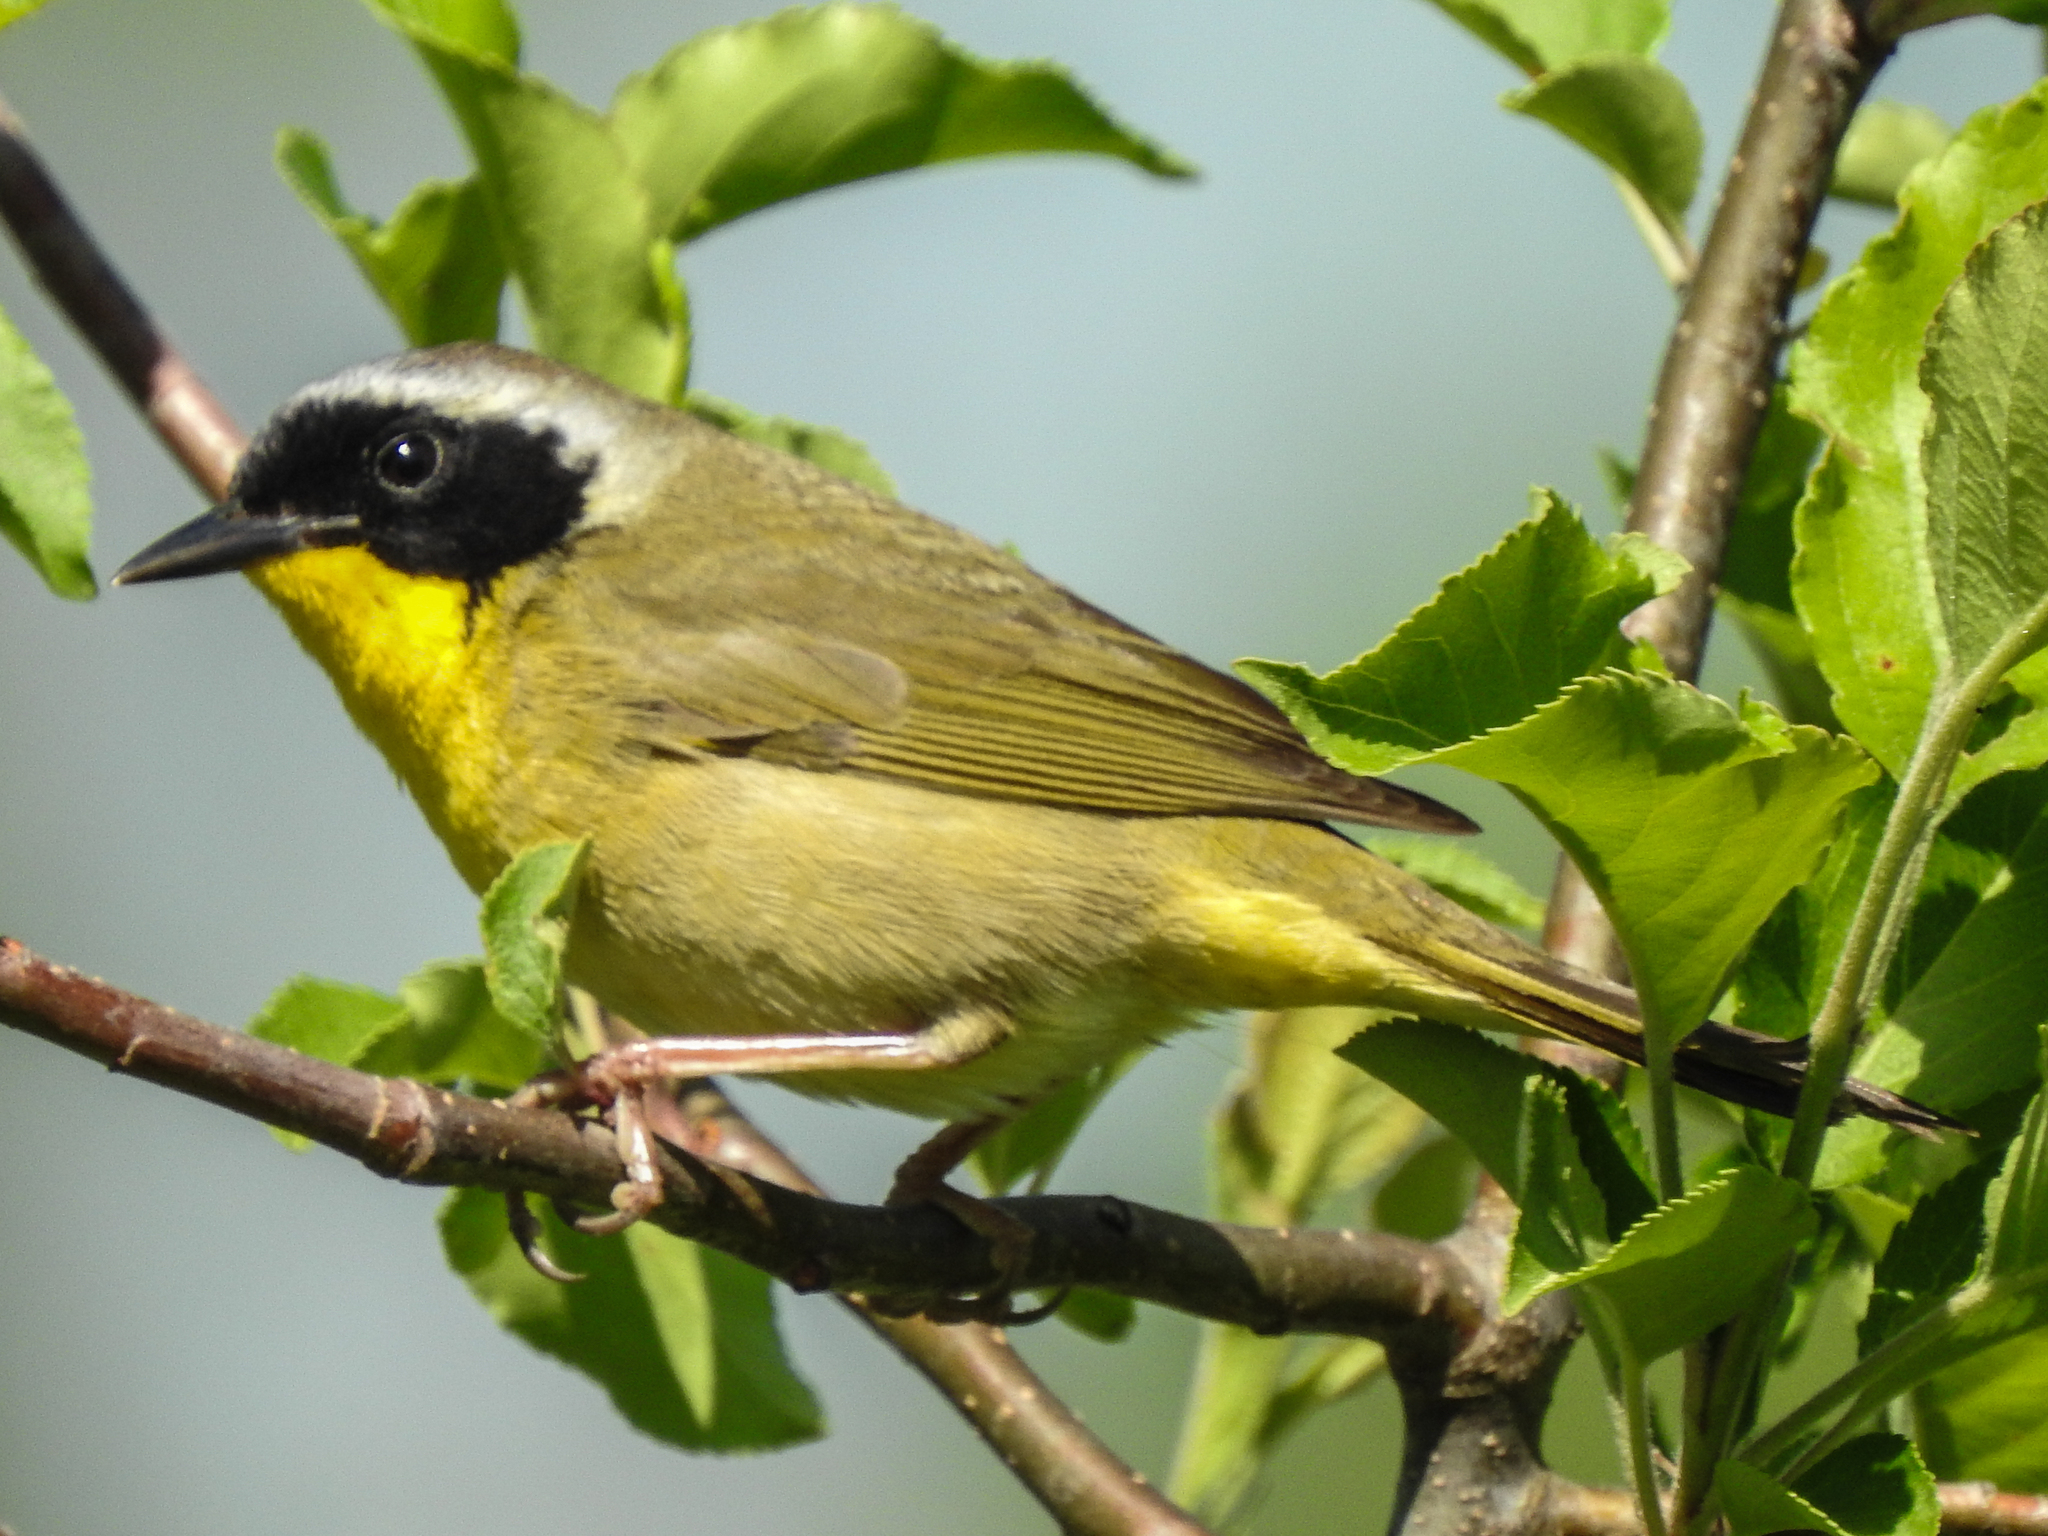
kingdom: Animalia
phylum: Chordata
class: Aves
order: Passeriformes
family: Parulidae
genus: Geothlypis
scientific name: Geothlypis trichas
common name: Common yellowthroat
